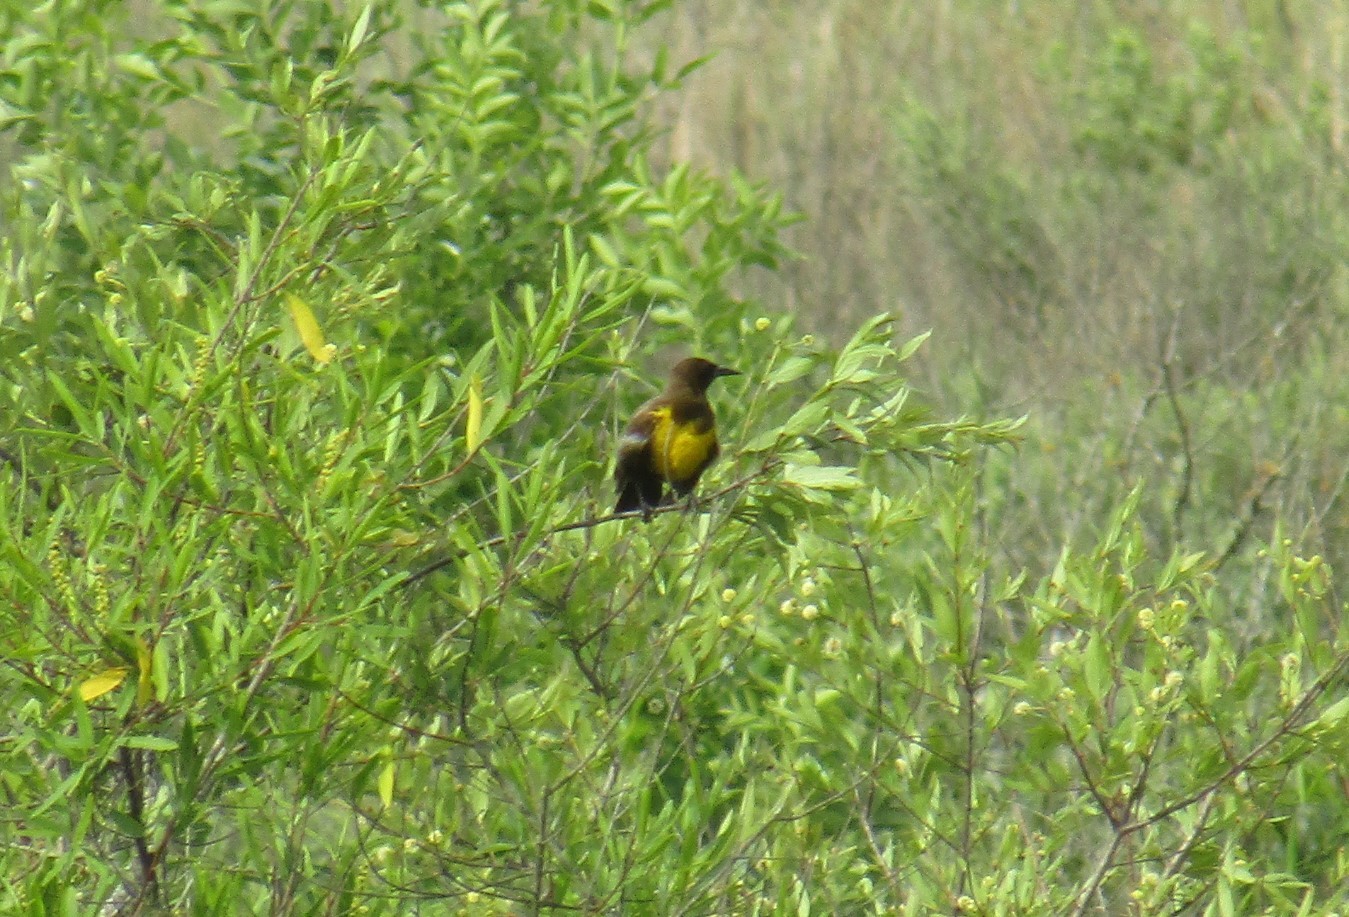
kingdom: Animalia
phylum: Chordata
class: Aves
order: Passeriformes
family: Icteridae
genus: Pseudoleistes
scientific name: Pseudoleistes virescens
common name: Brown-and-yellow marshbird
